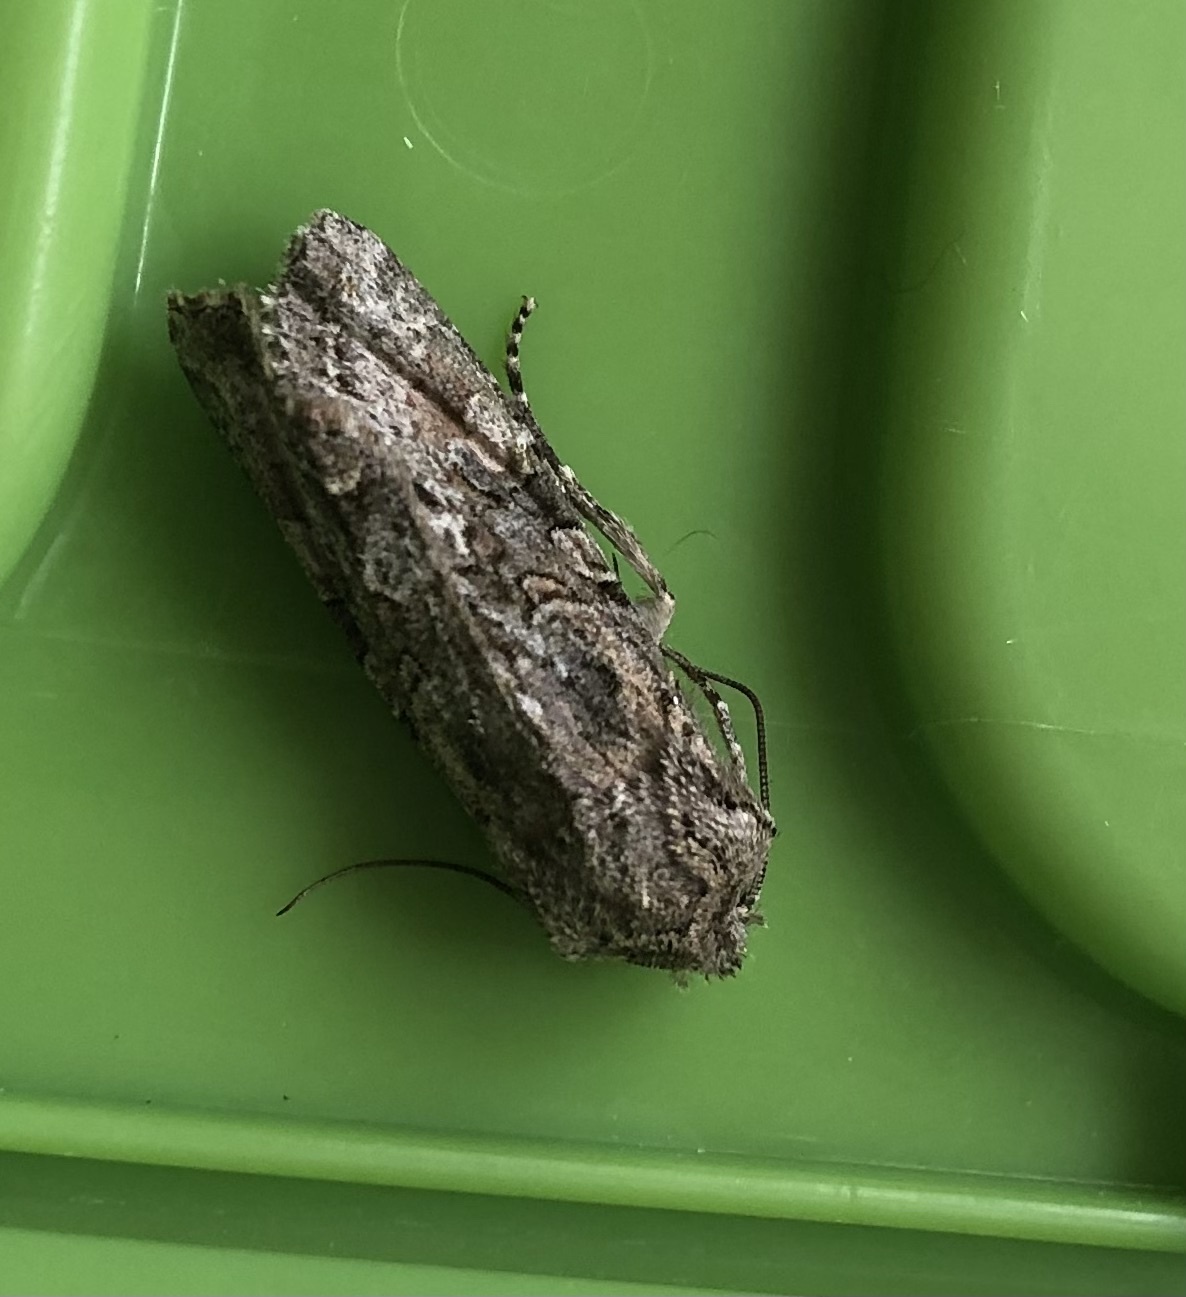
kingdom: Animalia
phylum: Arthropoda
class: Insecta
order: Lepidoptera
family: Noctuidae
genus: Ichneutica
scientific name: Ichneutica mutans
